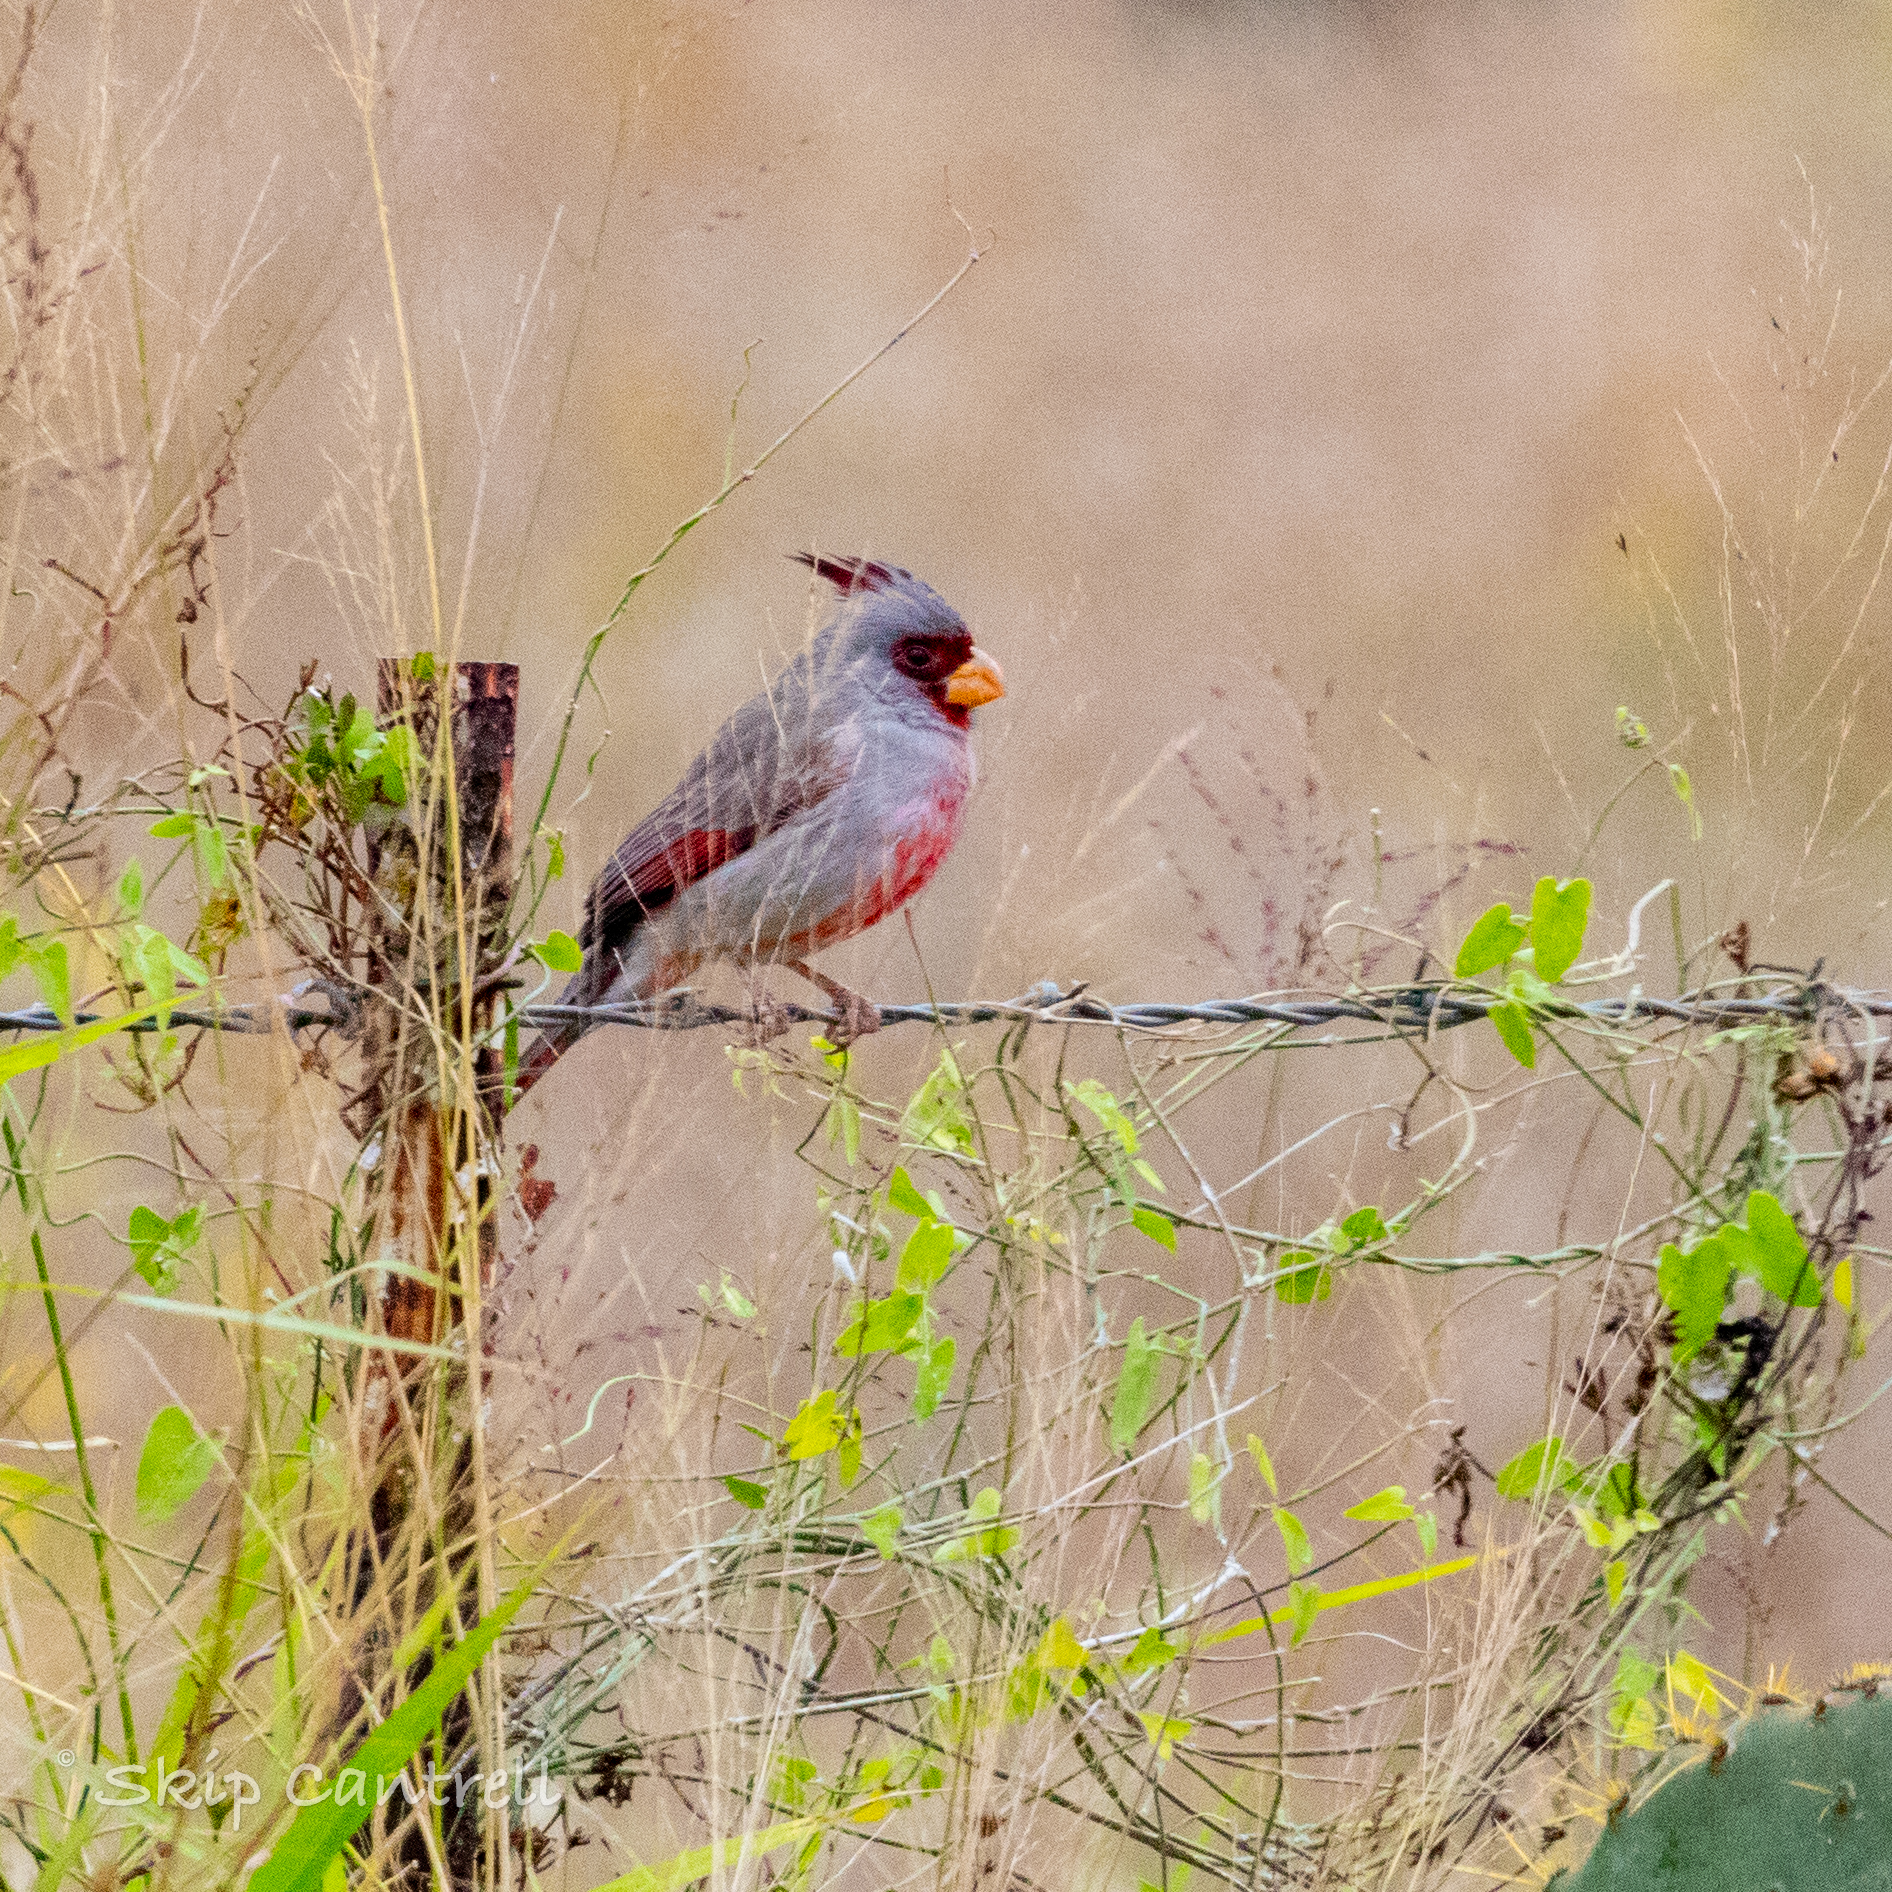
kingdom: Animalia
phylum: Chordata
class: Aves
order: Passeriformes
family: Cardinalidae
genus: Cardinalis
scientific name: Cardinalis sinuatus
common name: Pyrrhuloxia
